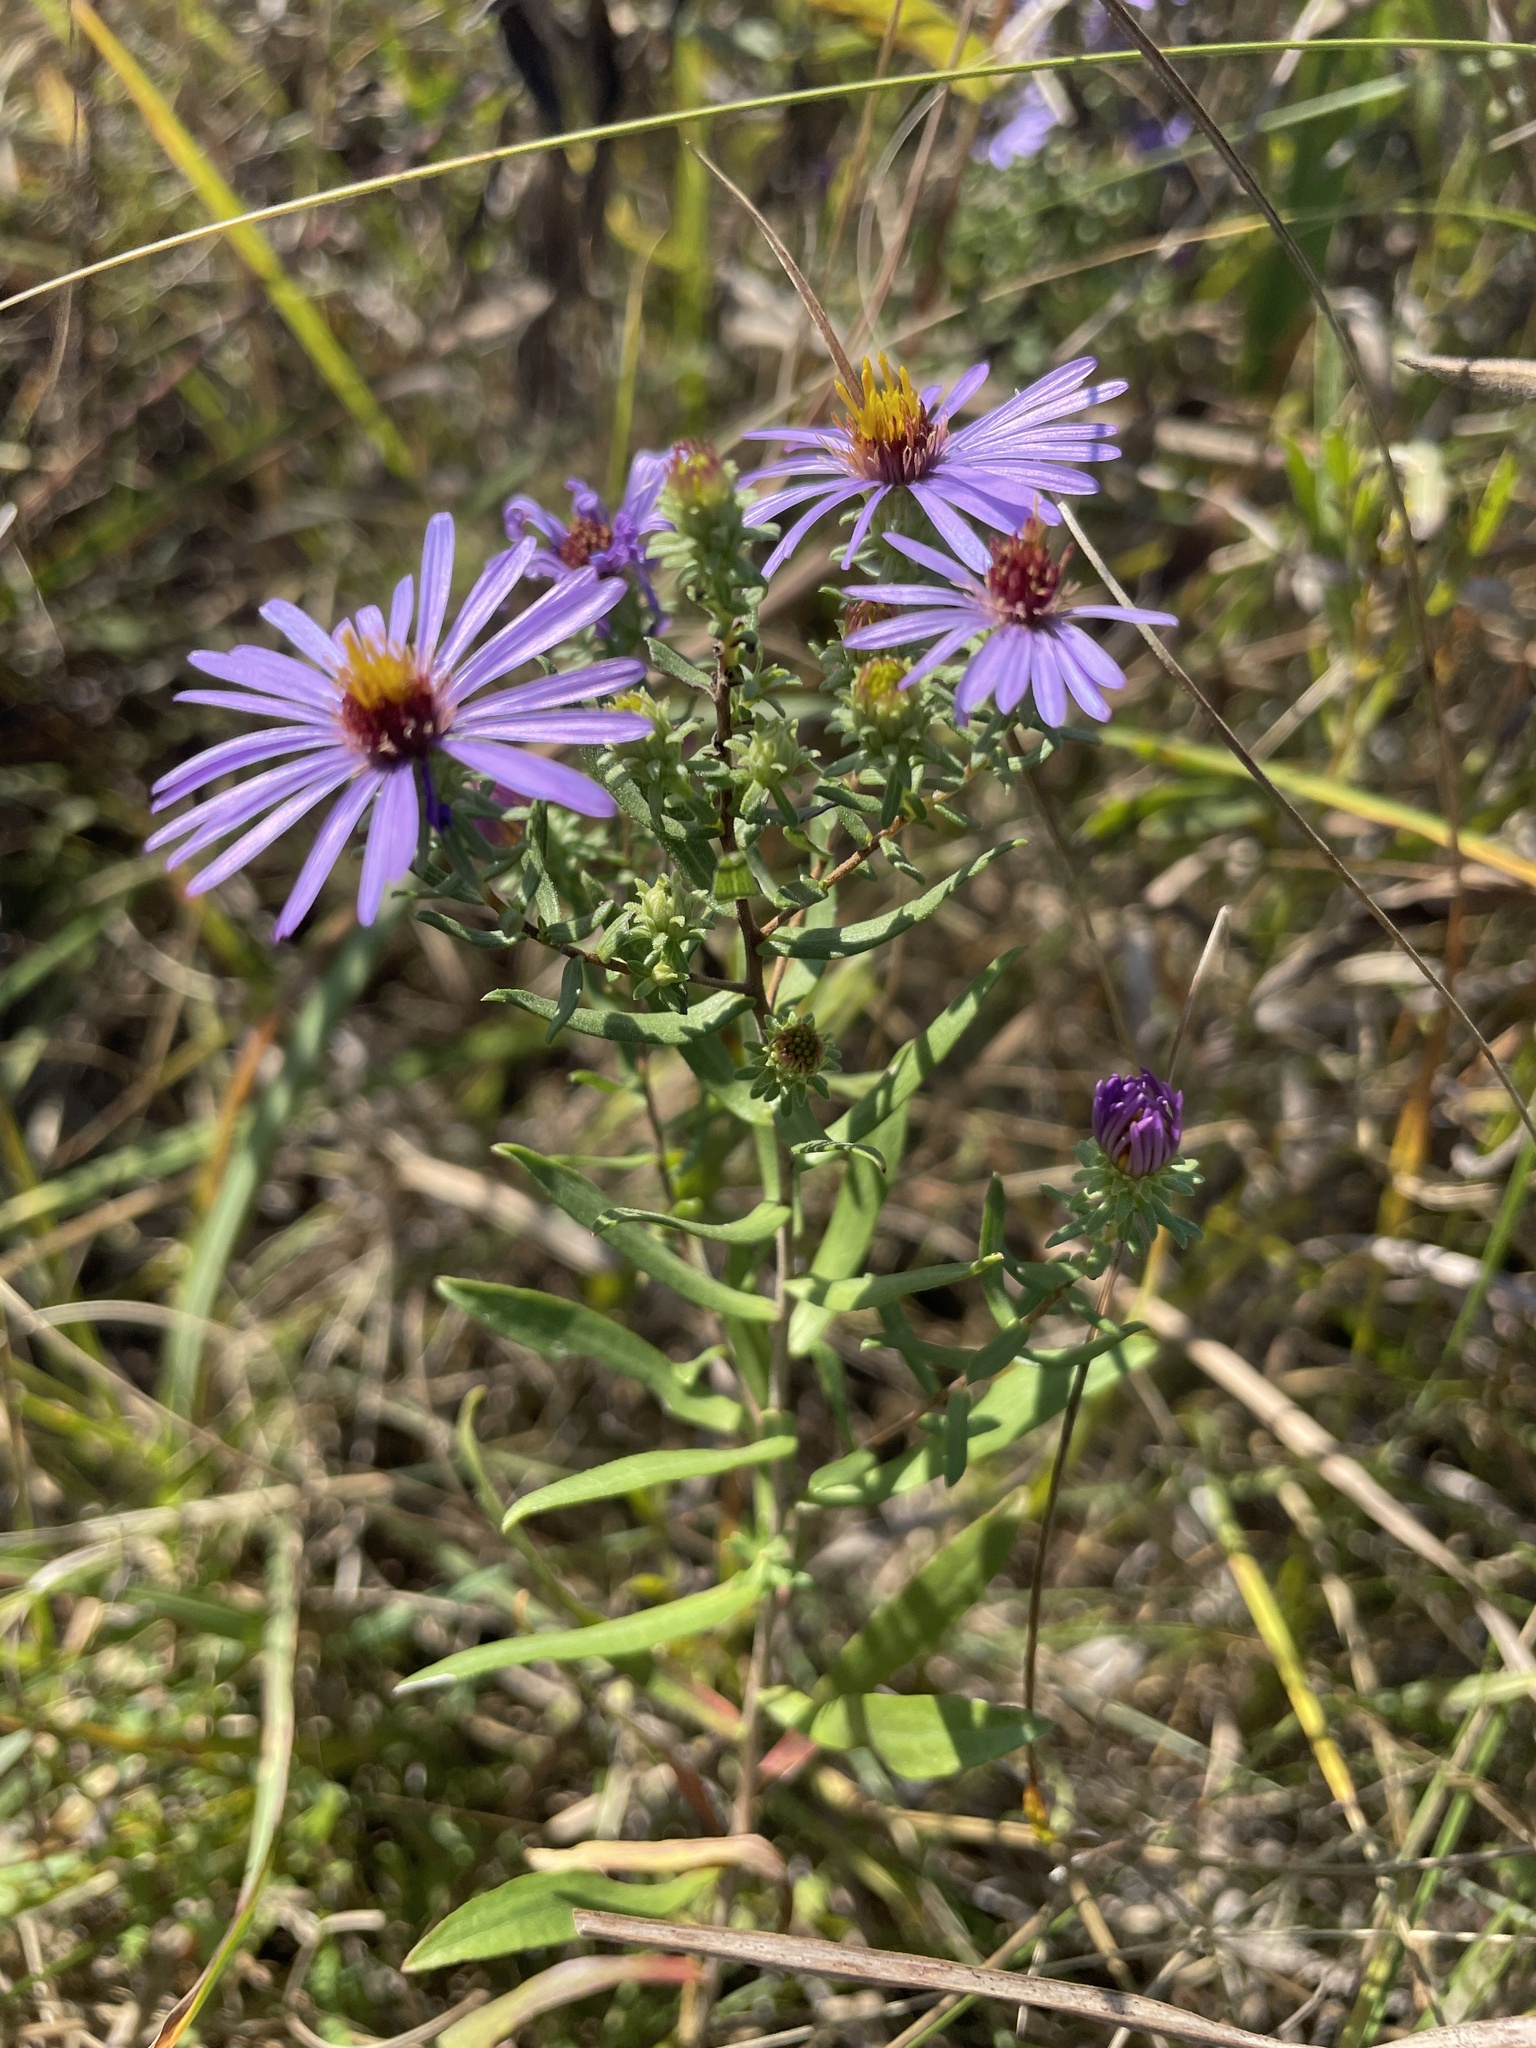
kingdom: Plantae
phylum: Tracheophyta
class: Magnoliopsida
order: Asterales
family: Asteraceae
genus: Symphyotrichum
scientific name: Symphyotrichum oblongifolium
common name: Aromatic aster
